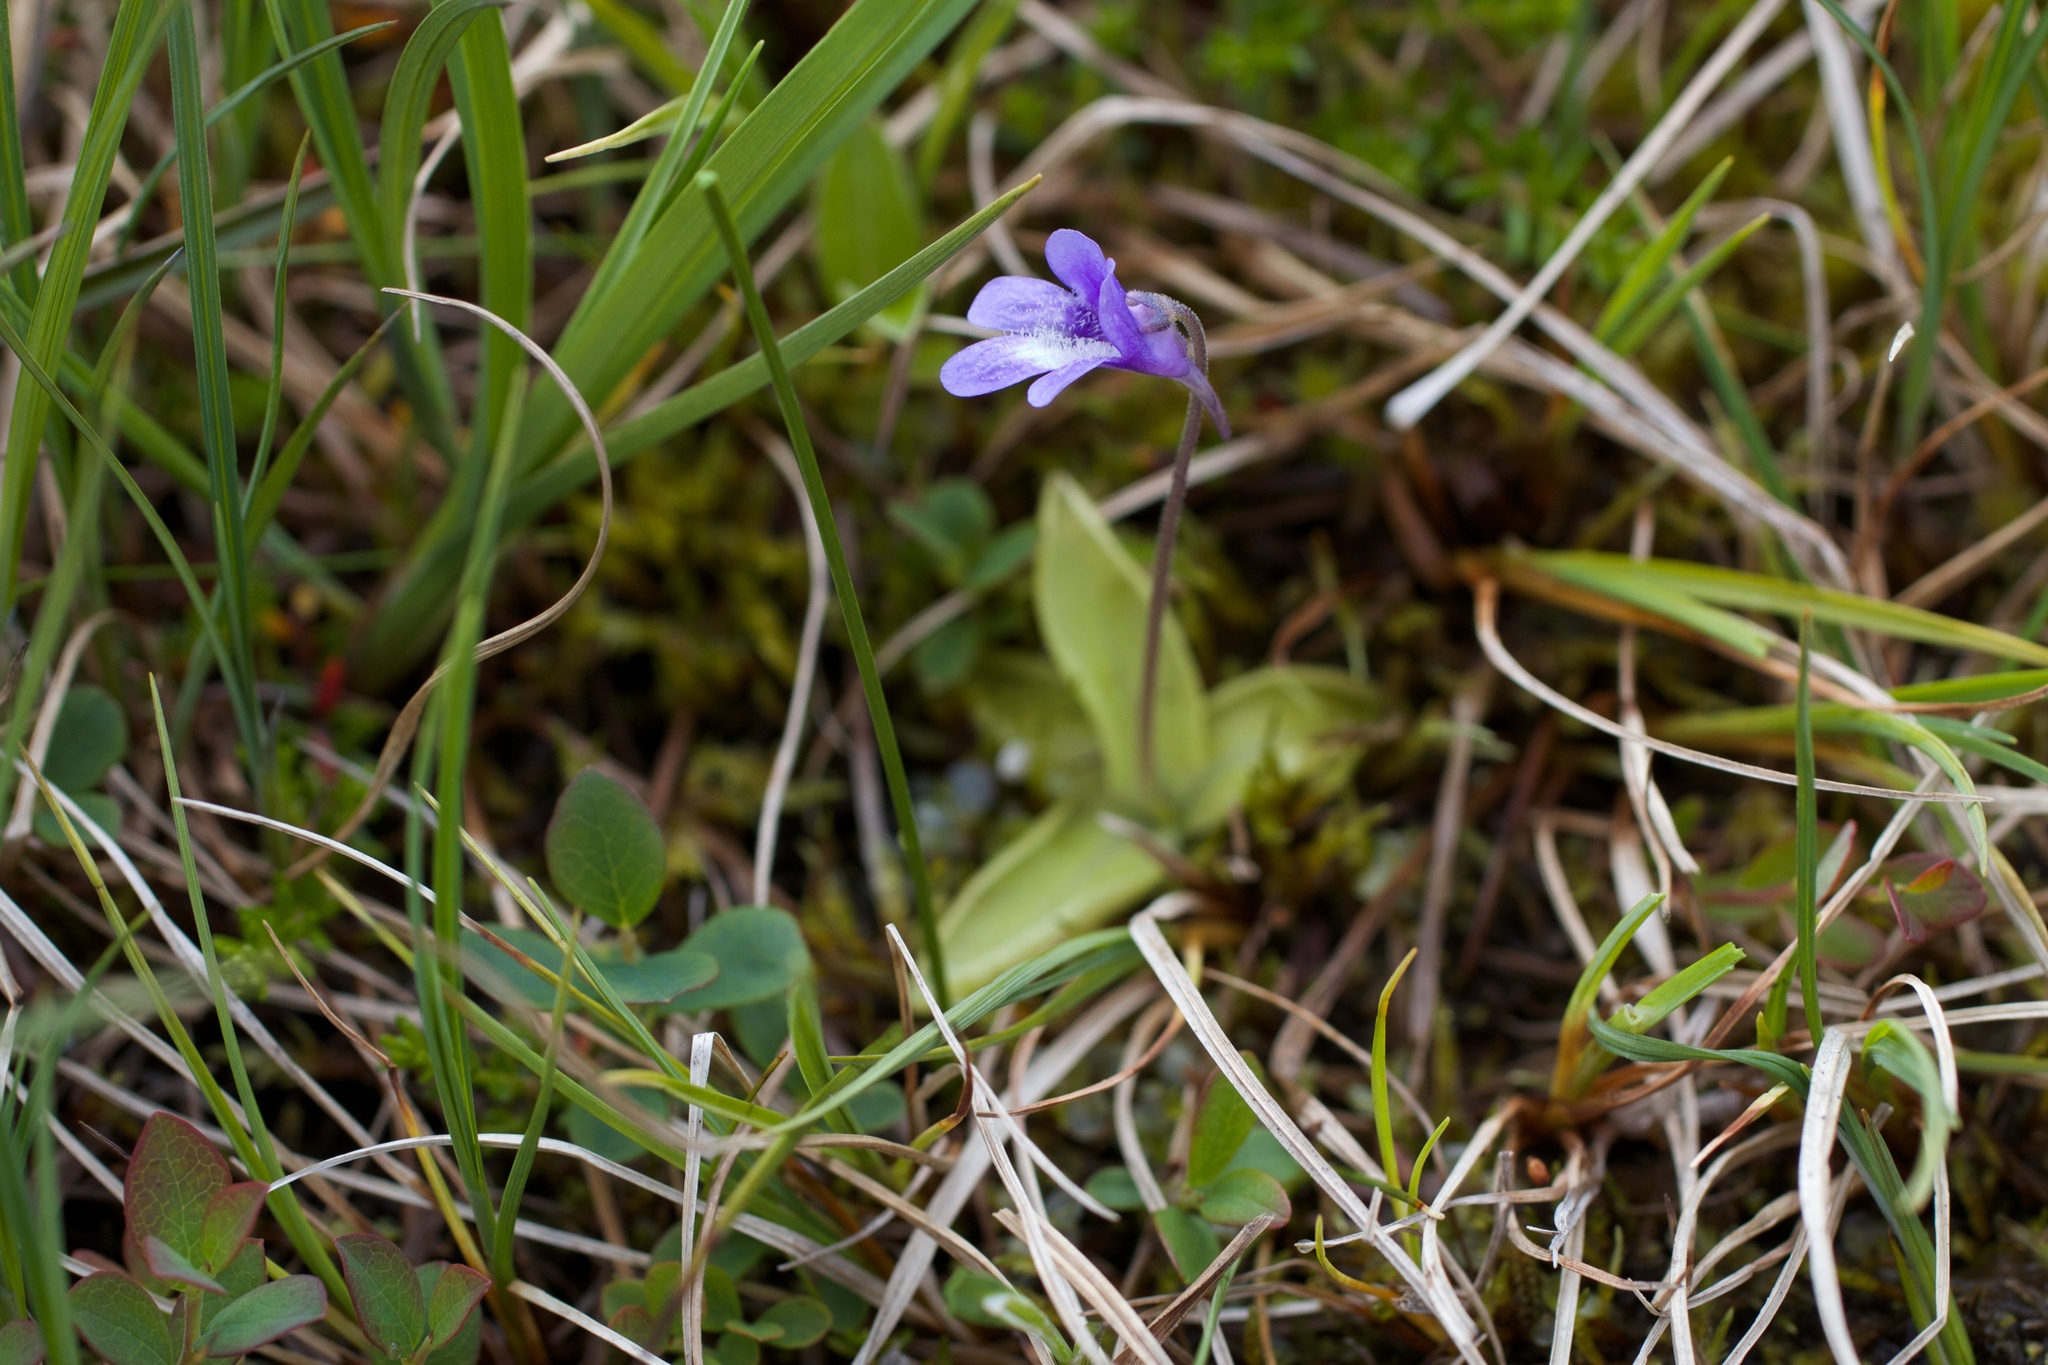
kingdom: Plantae
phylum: Tracheophyta
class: Magnoliopsida
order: Lamiales
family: Lentibulariaceae
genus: Pinguicula
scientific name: Pinguicula vulgaris
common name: Common butterwort
